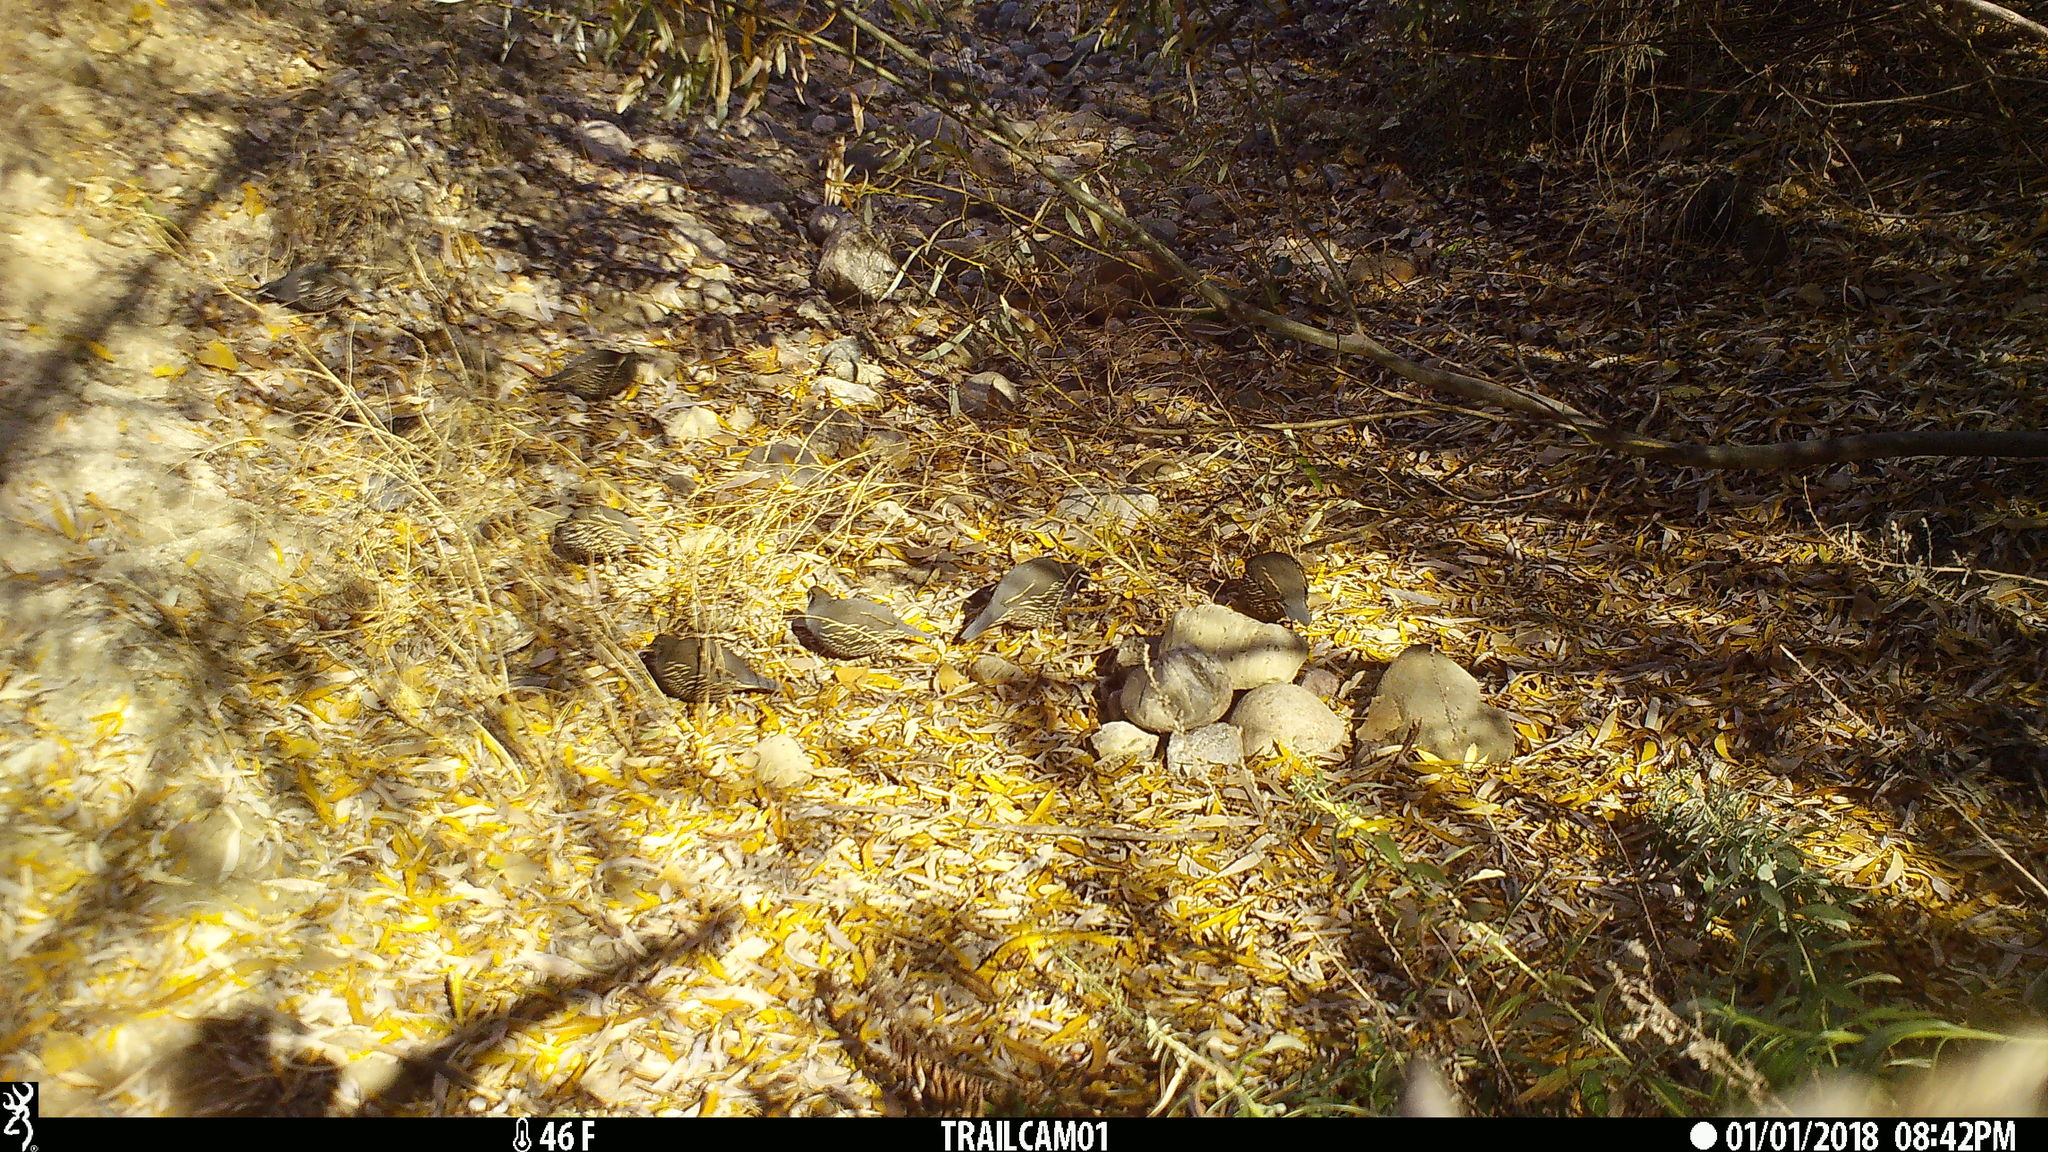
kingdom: Animalia
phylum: Chordata
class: Aves
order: Galliformes
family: Odontophoridae
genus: Callipepla
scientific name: Callipepla californica
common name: California quail
